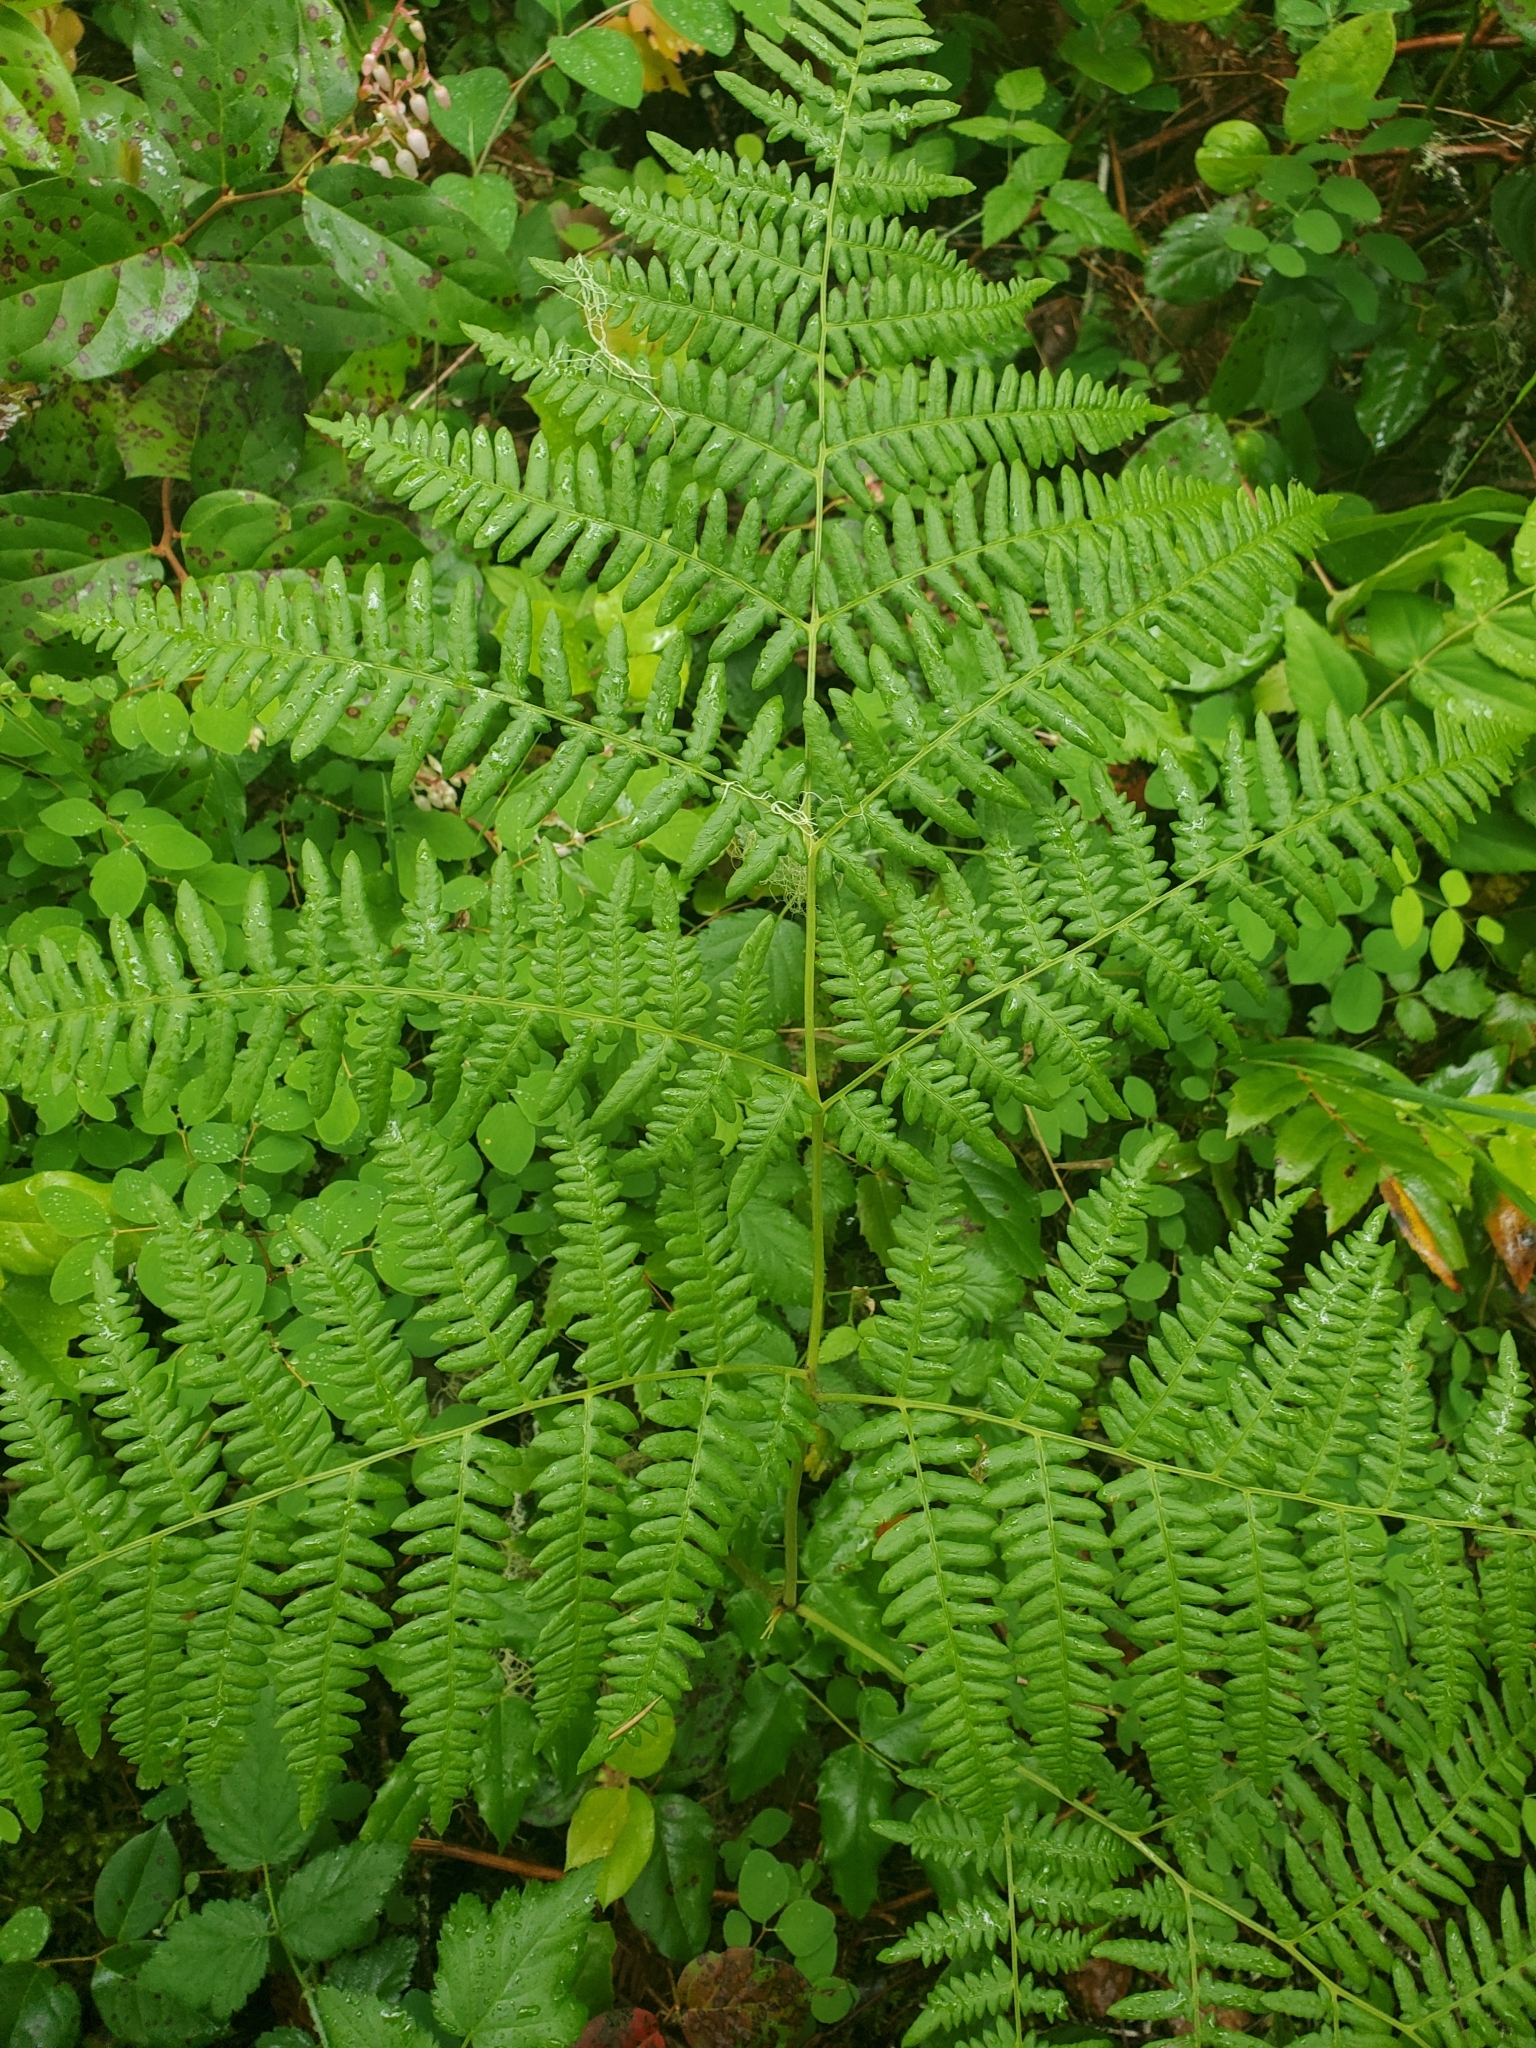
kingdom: Plantae
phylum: Tracheophyta
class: Polypodiopsida
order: Polypodiales
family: Dennstaedtiaceae
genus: Pteridium
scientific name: Pteridium aquilinum
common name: Bracken
